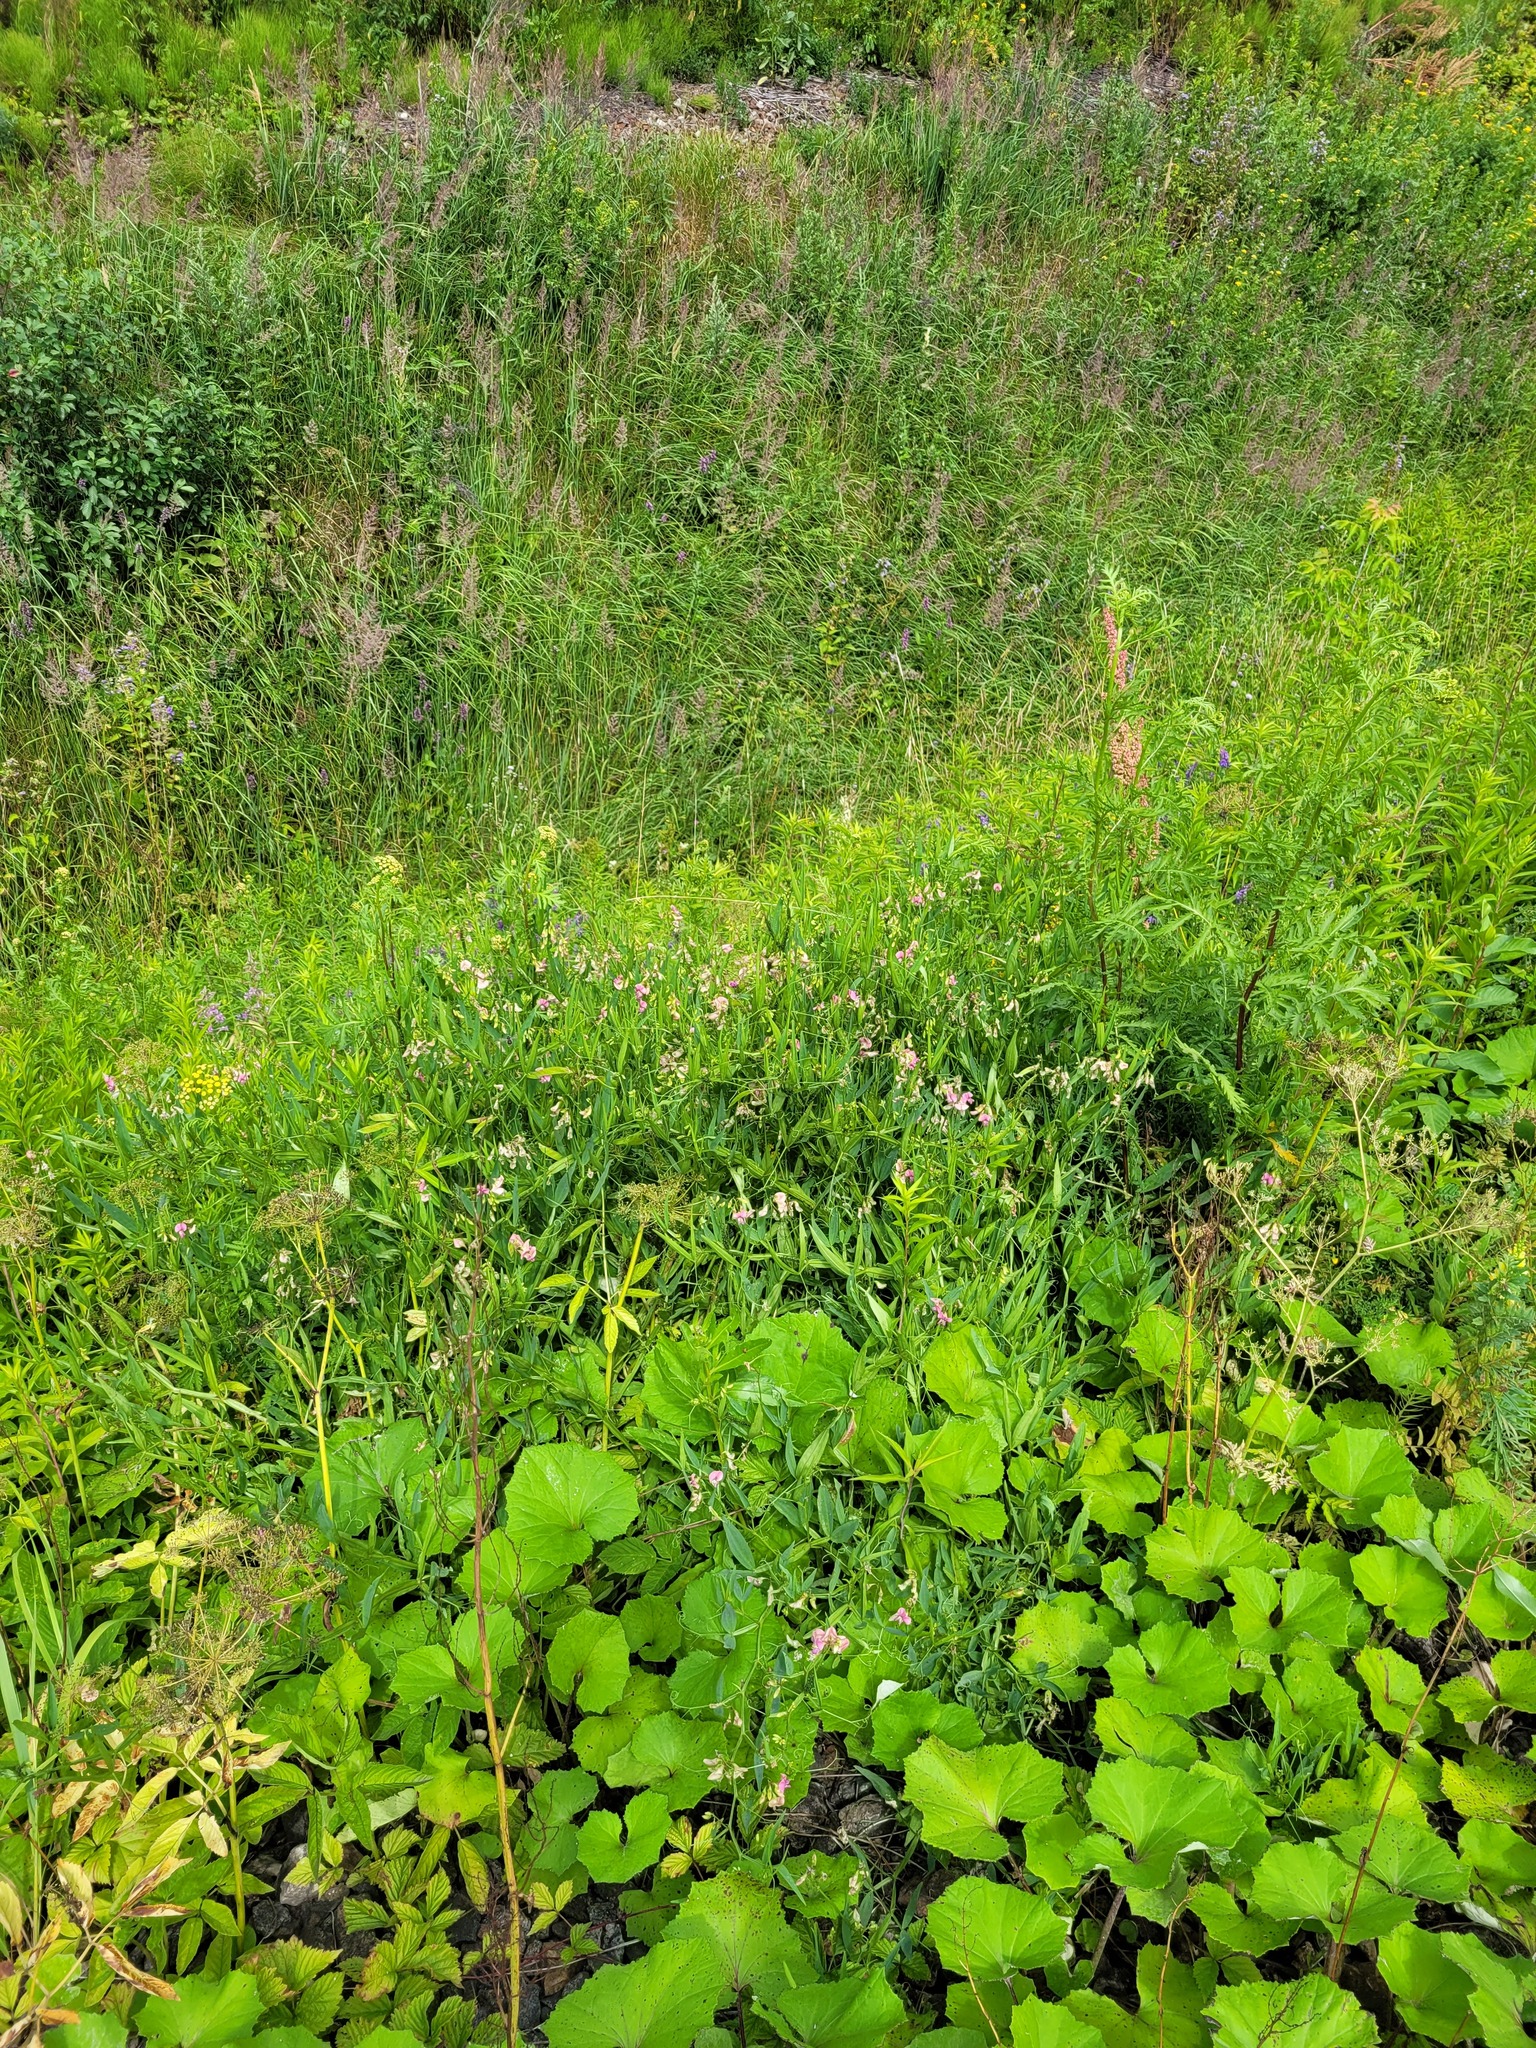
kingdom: Plantae
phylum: Tracheophyta
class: Magnoliopsida
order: Fabales
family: Fabaceae
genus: Lathyrus
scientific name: Lathyrus sylvestris
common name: Flat pea
